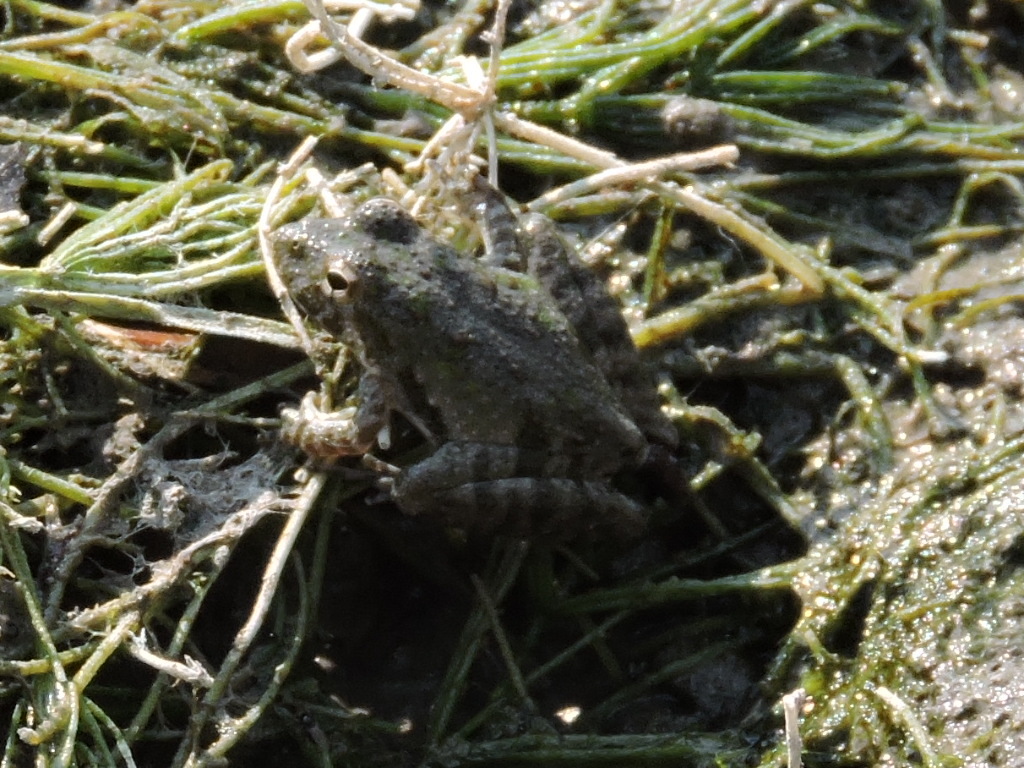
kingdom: Animalia
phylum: Chordata
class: Amphibia
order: Anura
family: Hylidae
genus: Acris
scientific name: Acris blanchardi
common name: Blanchard's cricket frog
